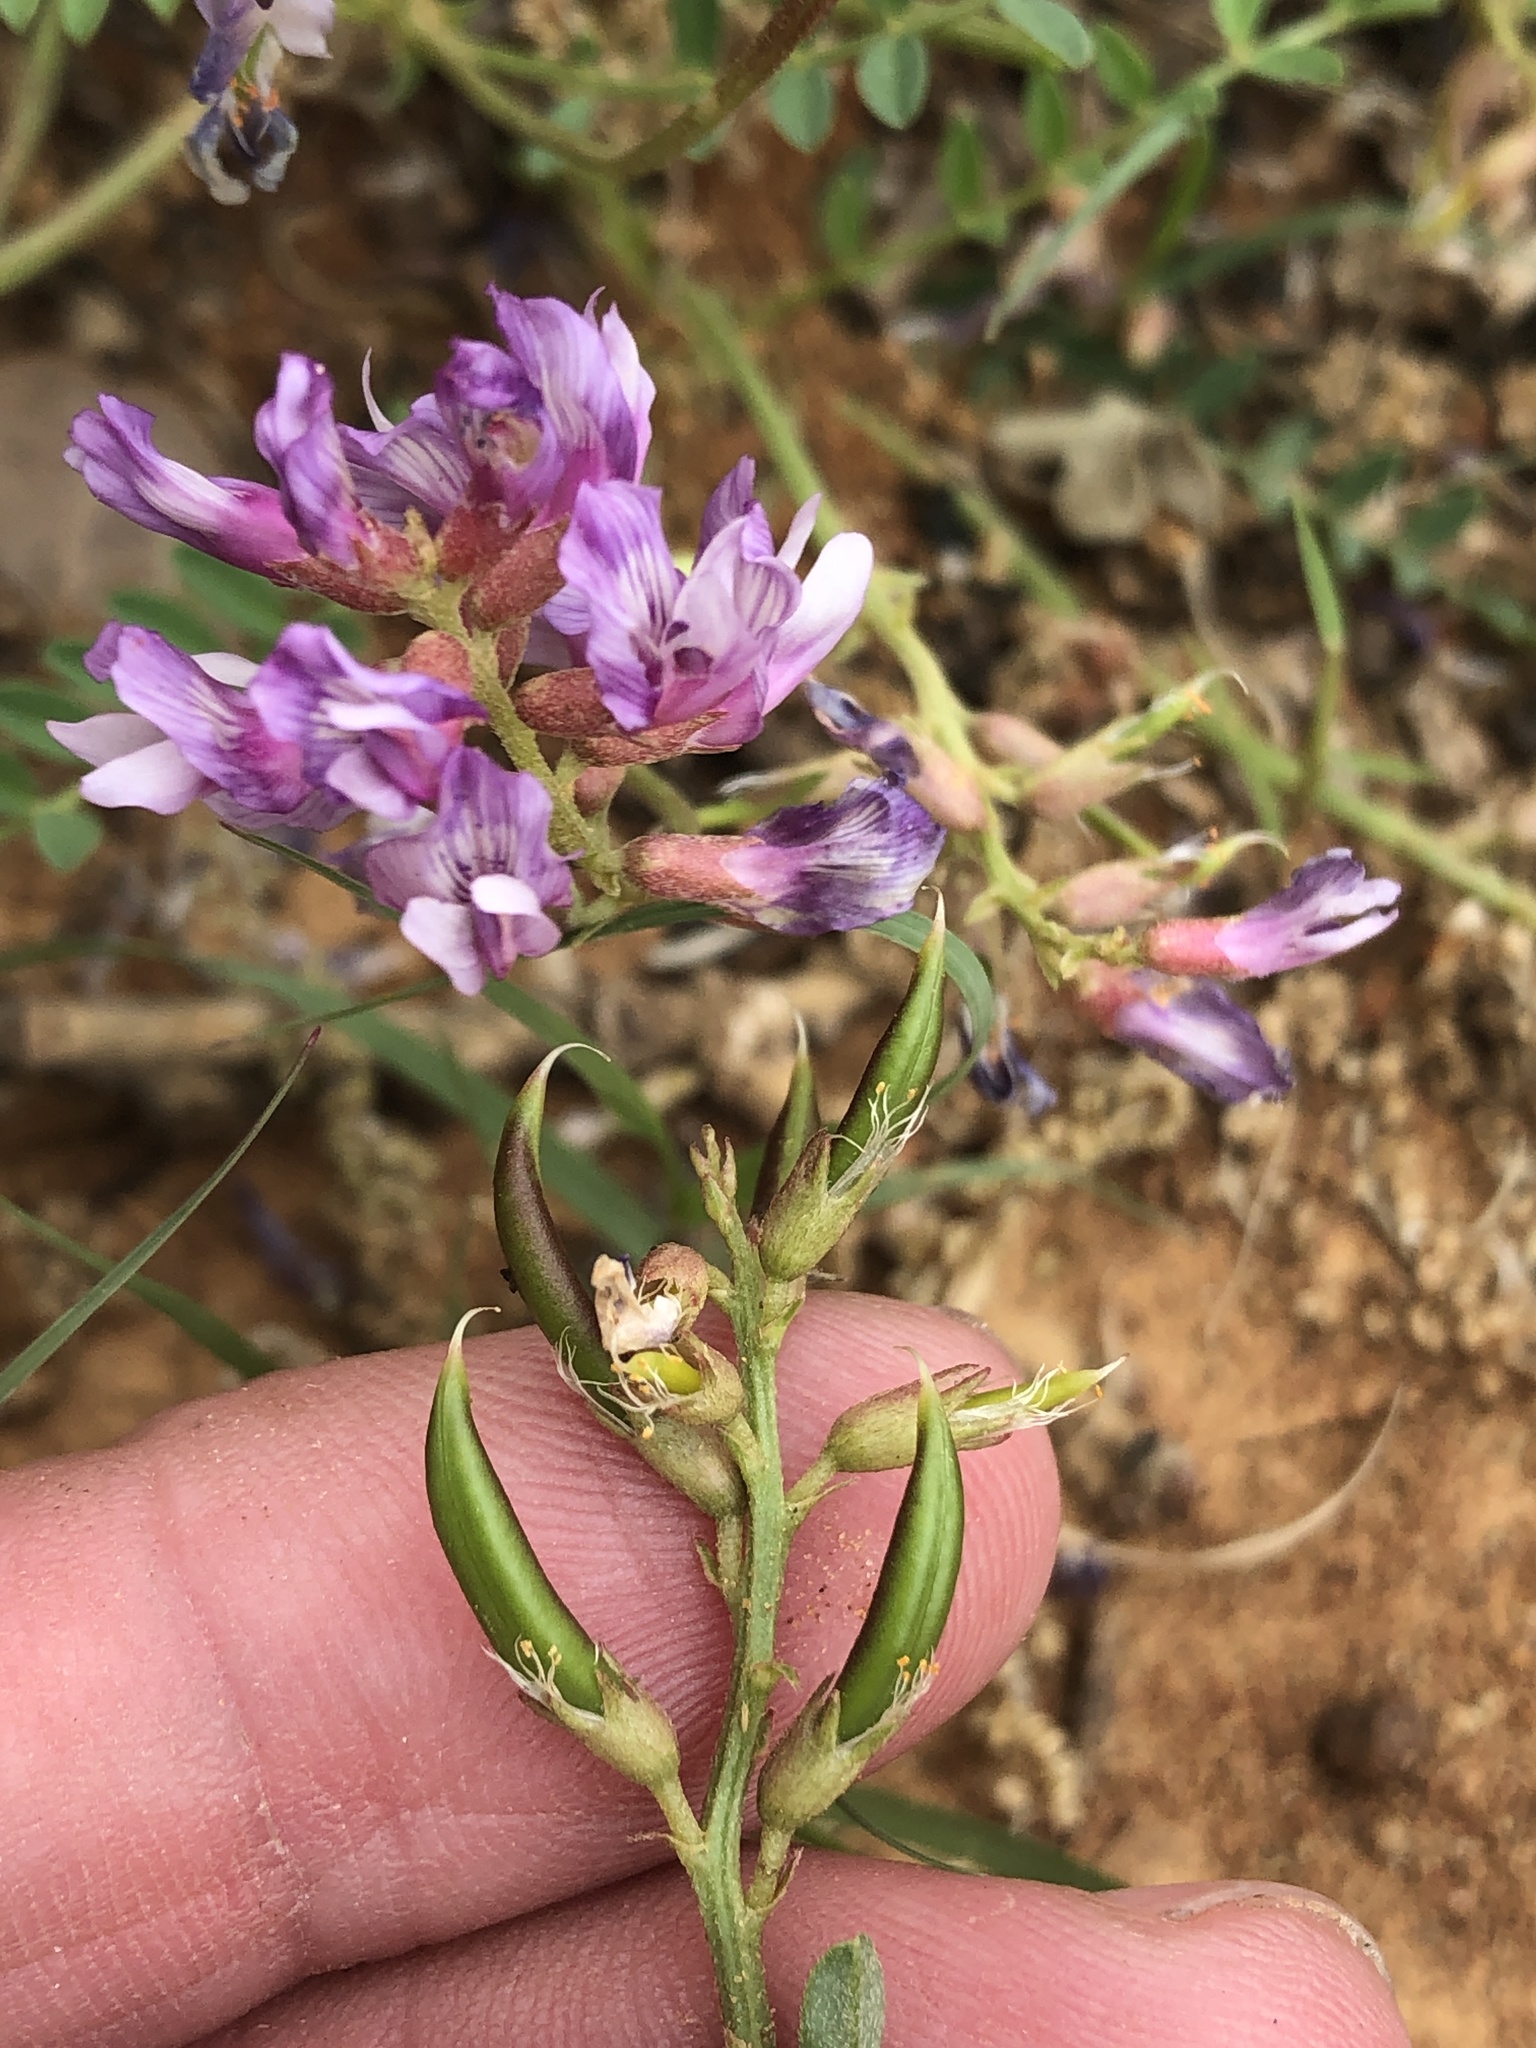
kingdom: Plantae
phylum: Tracheophyta
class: Magnoliopsida
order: Fabales
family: Fabaceae
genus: Astragalus
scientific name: Astragalus distortus
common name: Ozark milk-vetch
